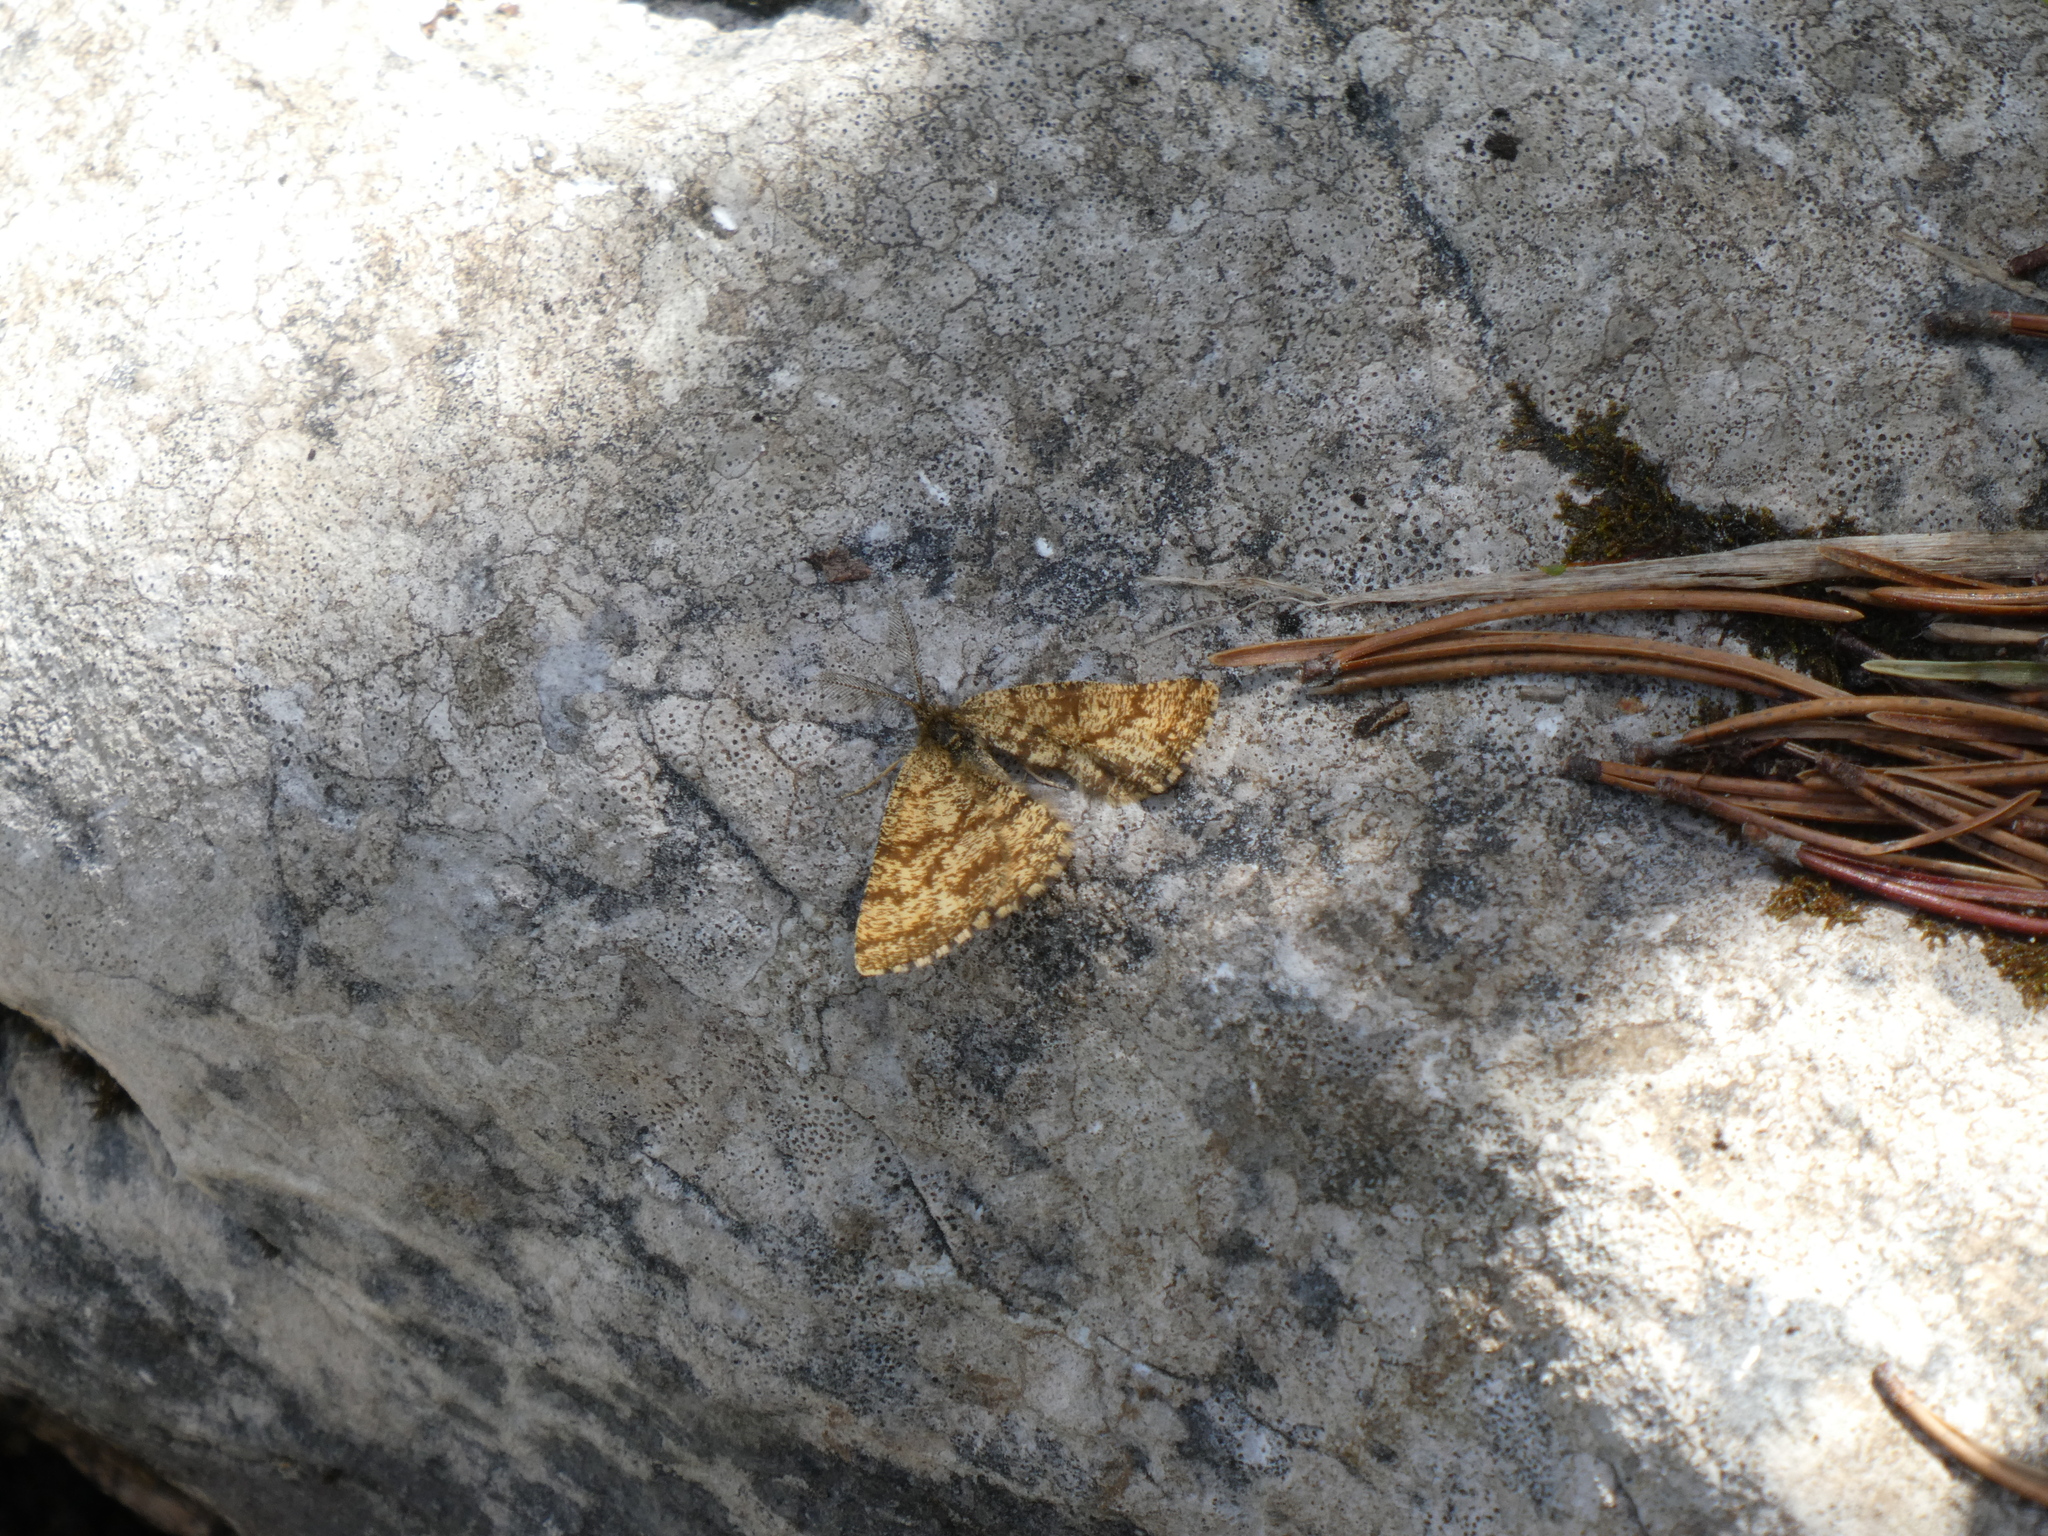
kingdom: Animalia
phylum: Arthropoda
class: Insecta
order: Lepidoptera
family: Geometridae
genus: Ematurga
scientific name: Ematurga atomaria
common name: Common heath
